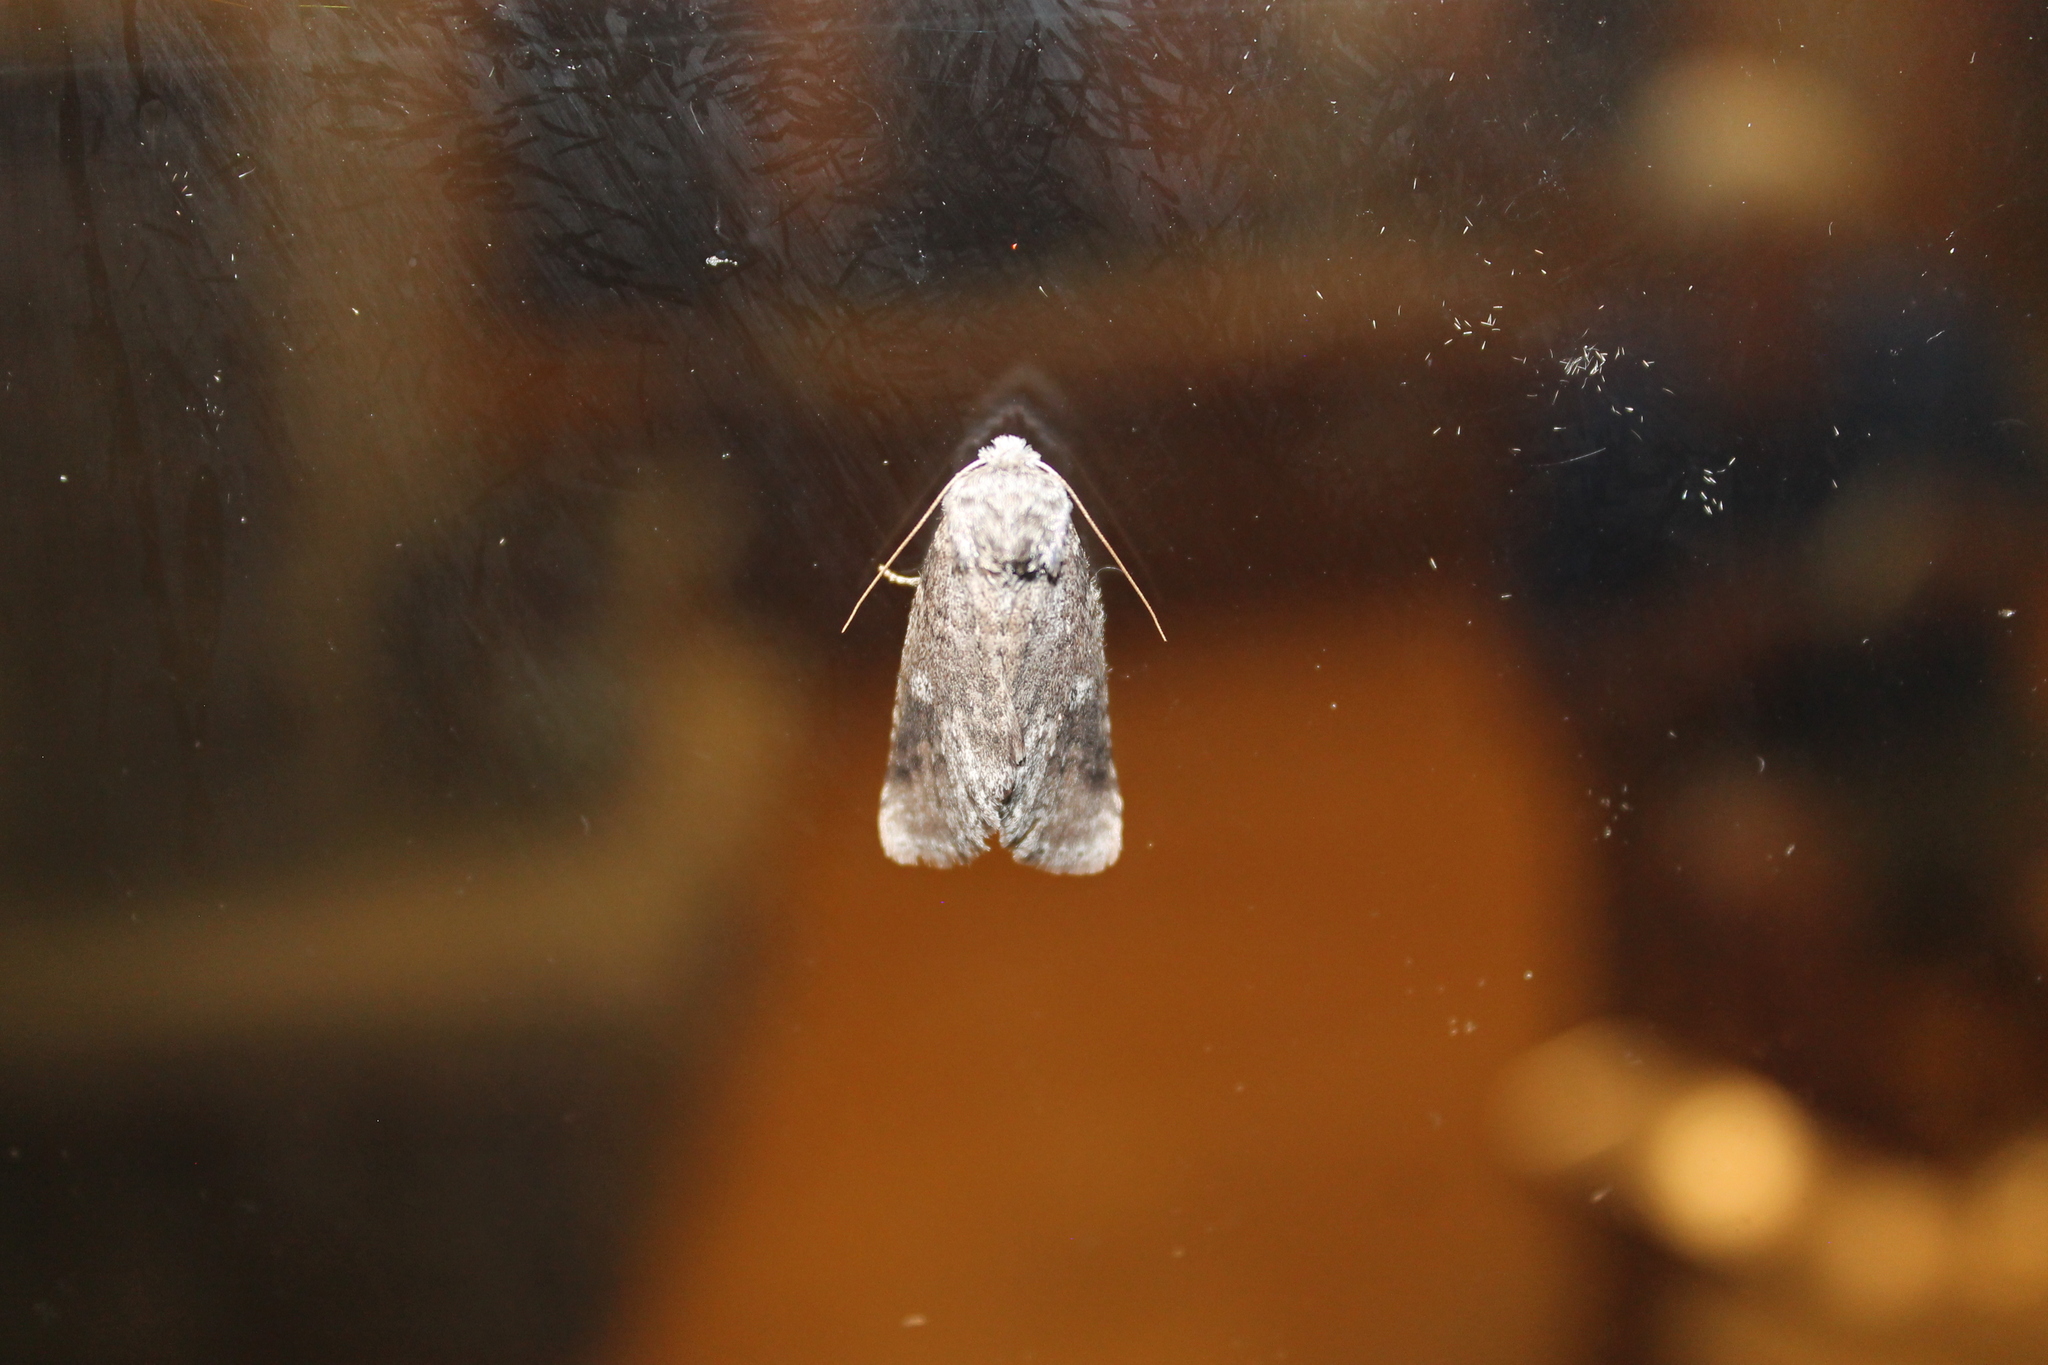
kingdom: Animalia
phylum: Arthropoda
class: Insecta
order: Lepidoptera
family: Notodontidae
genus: Disphragis
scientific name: Disphragis Cecrita guttivitta
